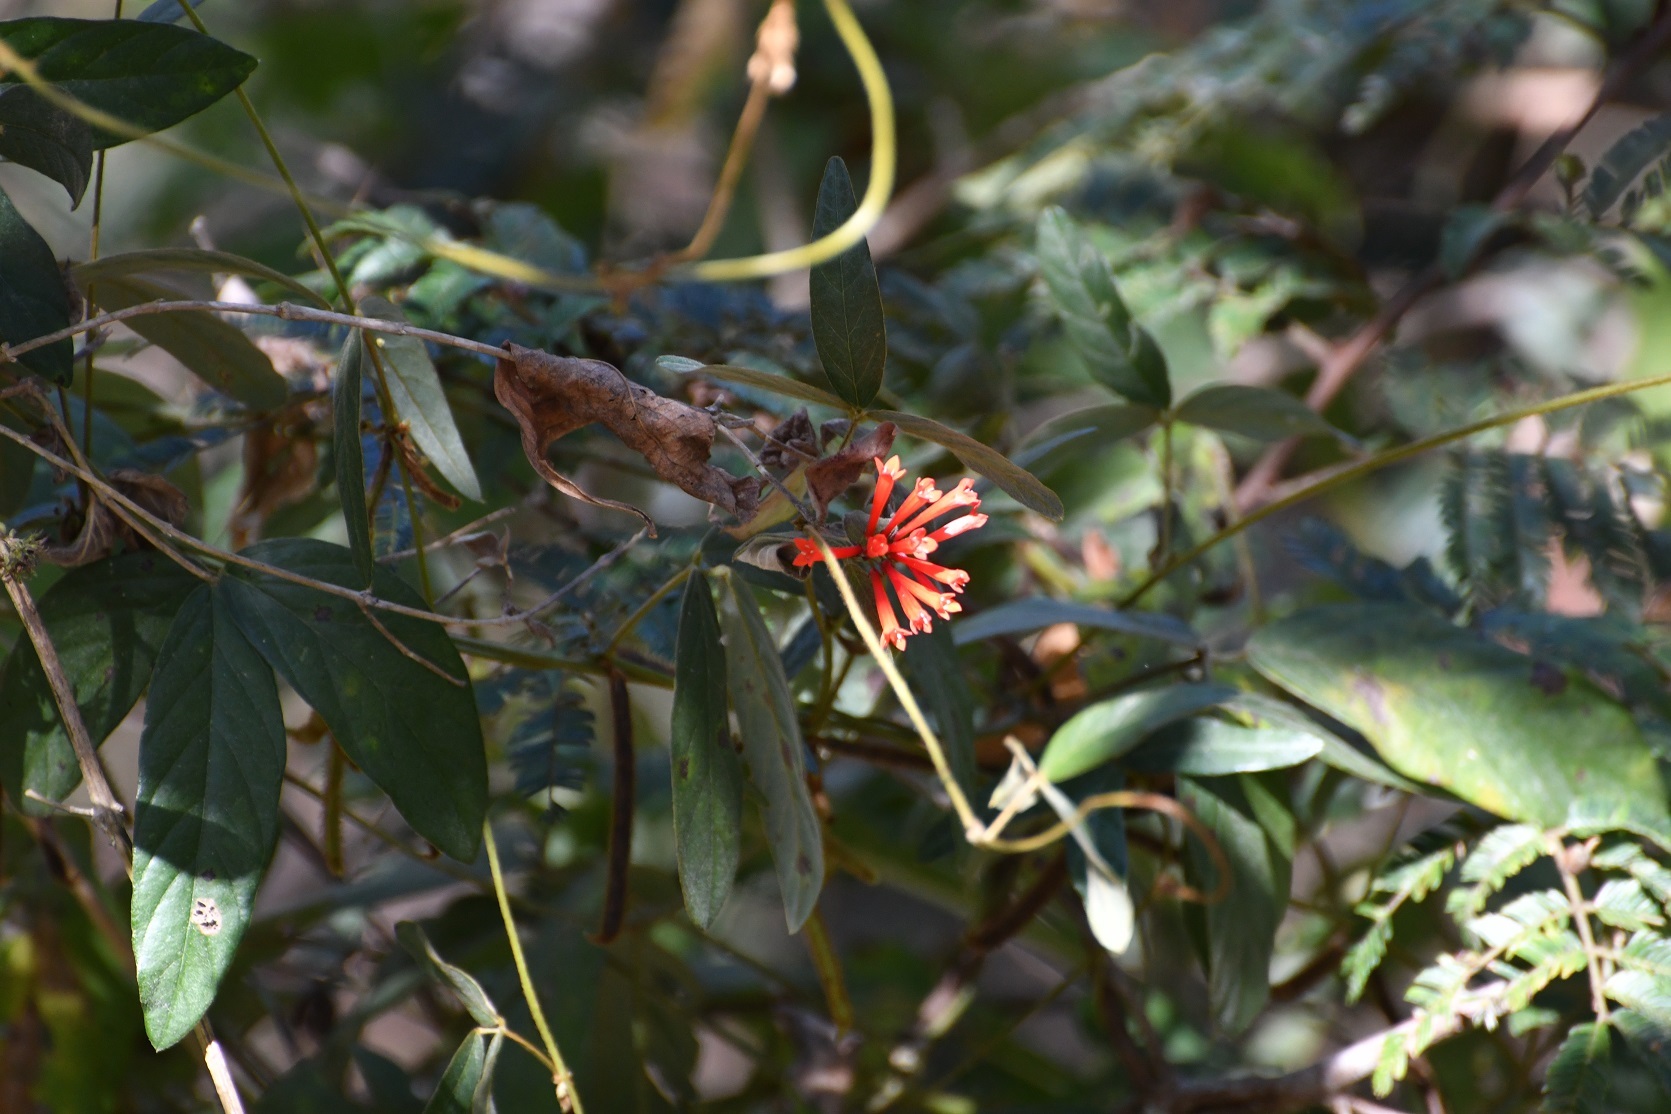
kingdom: Plantae
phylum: Tracheophyta
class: Magnoliopsida
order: Gentianales
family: Rubiaceae
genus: Bouvardia
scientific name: Bouvardia leiantha
